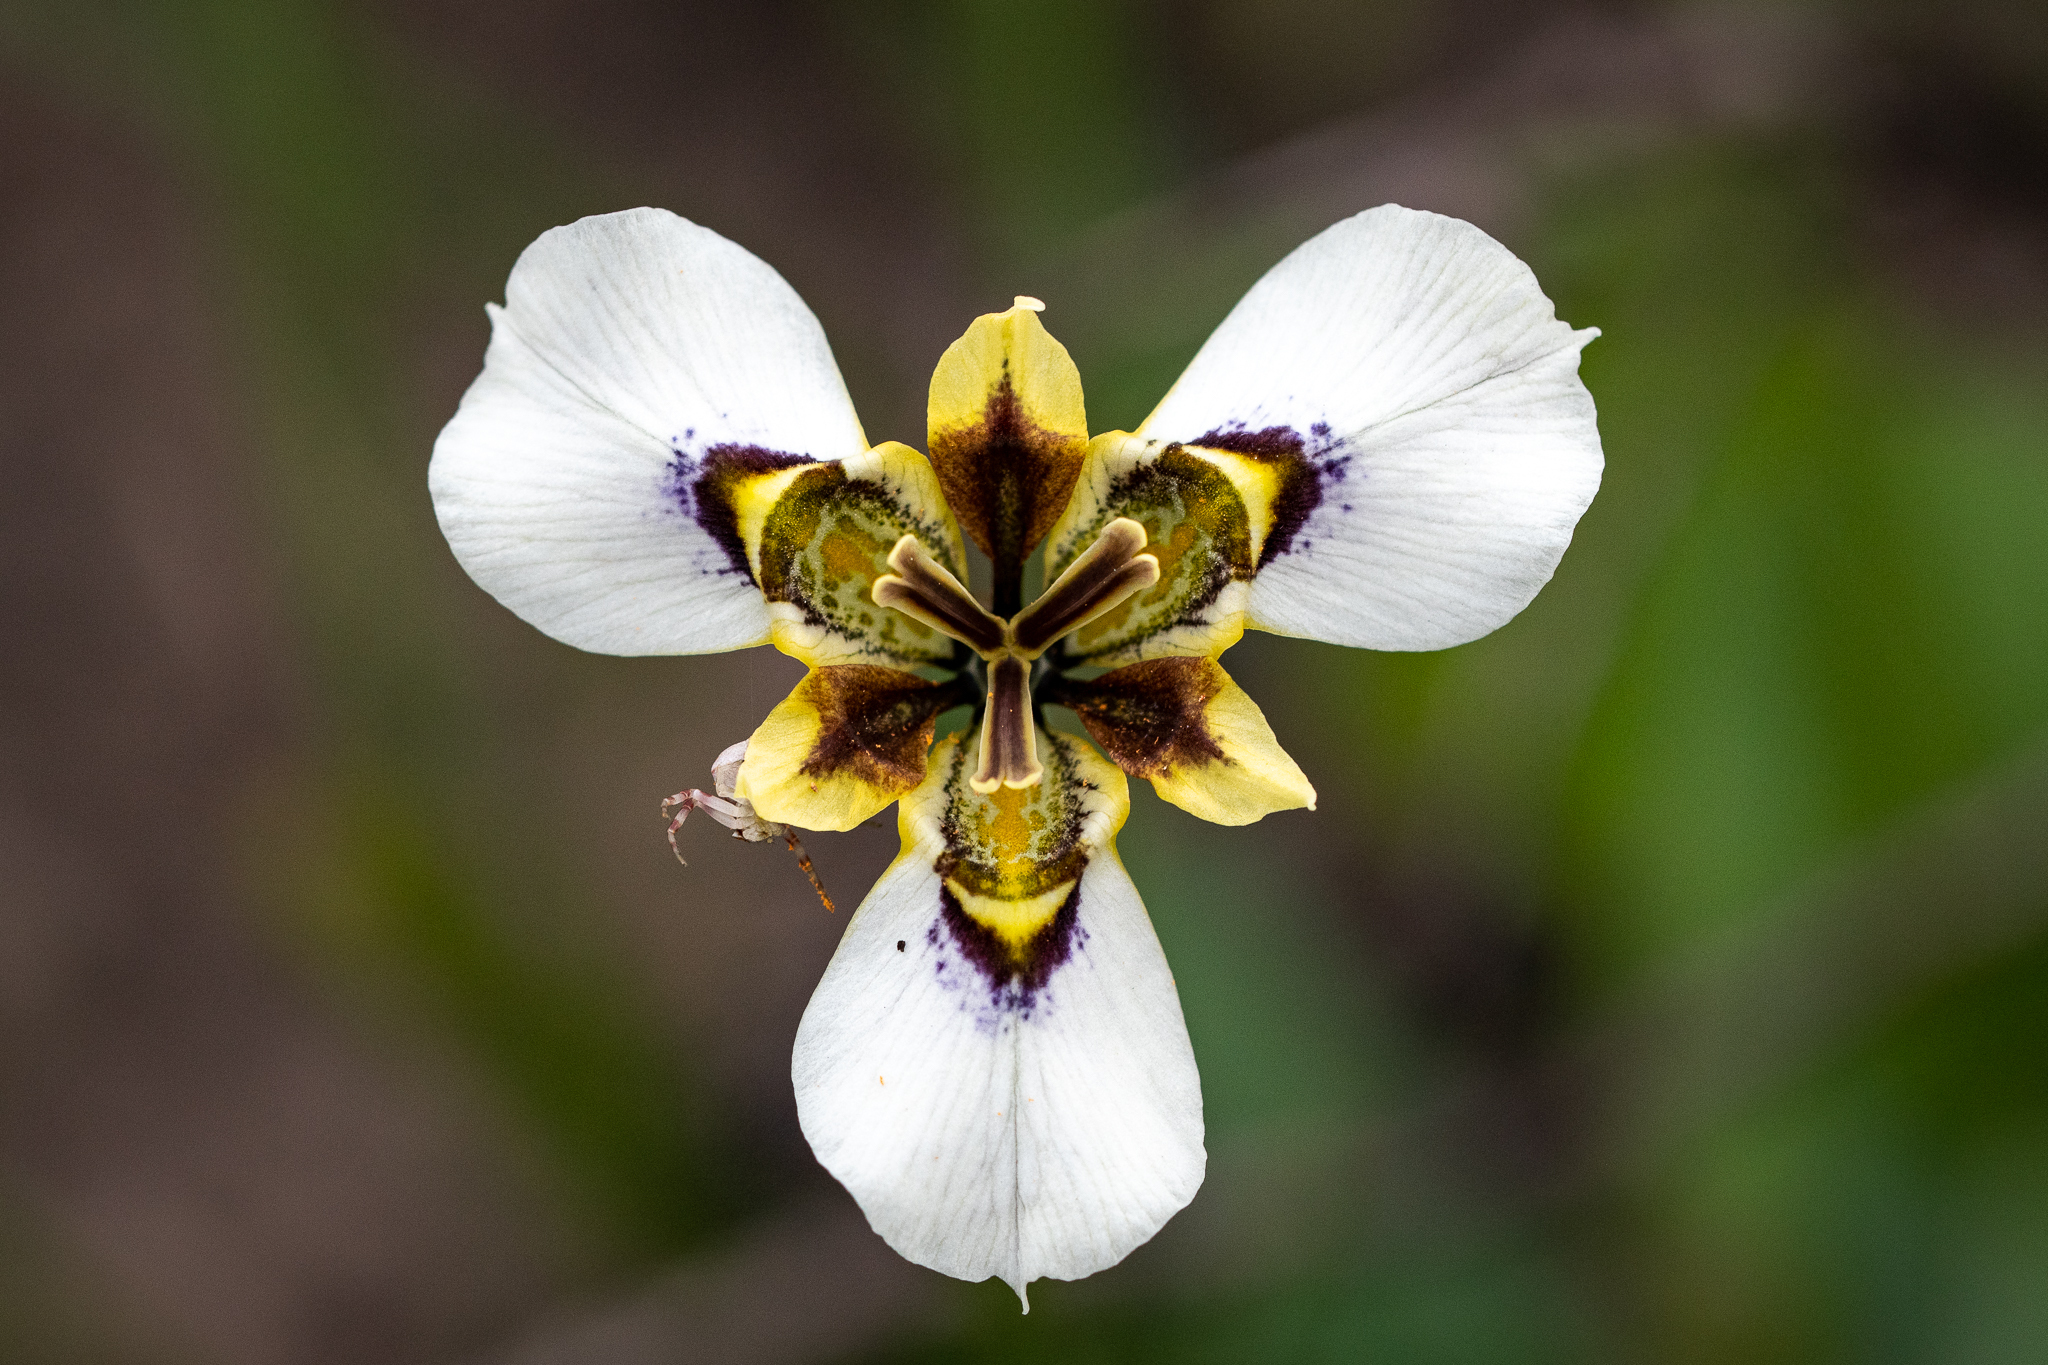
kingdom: Plantae
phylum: Tracheophyta
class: Liliopsida
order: Asparagales
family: Iridaceae
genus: Moraea
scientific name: Moraea lurida
